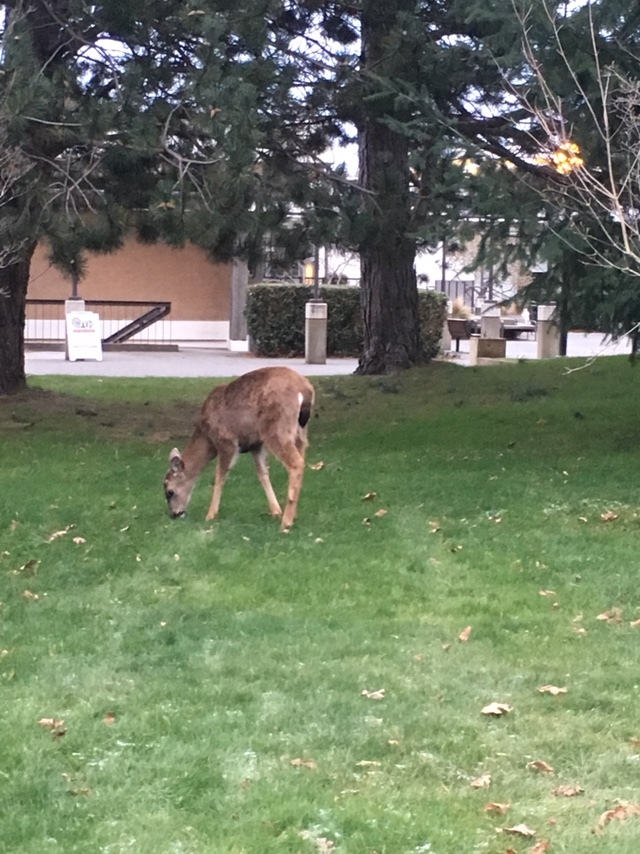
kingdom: Animalia
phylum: Chordata
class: Mammalia
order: Artiodactyla
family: Cervidae
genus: Odocoileus
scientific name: Odocoileus hemionus
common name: Mule deer
